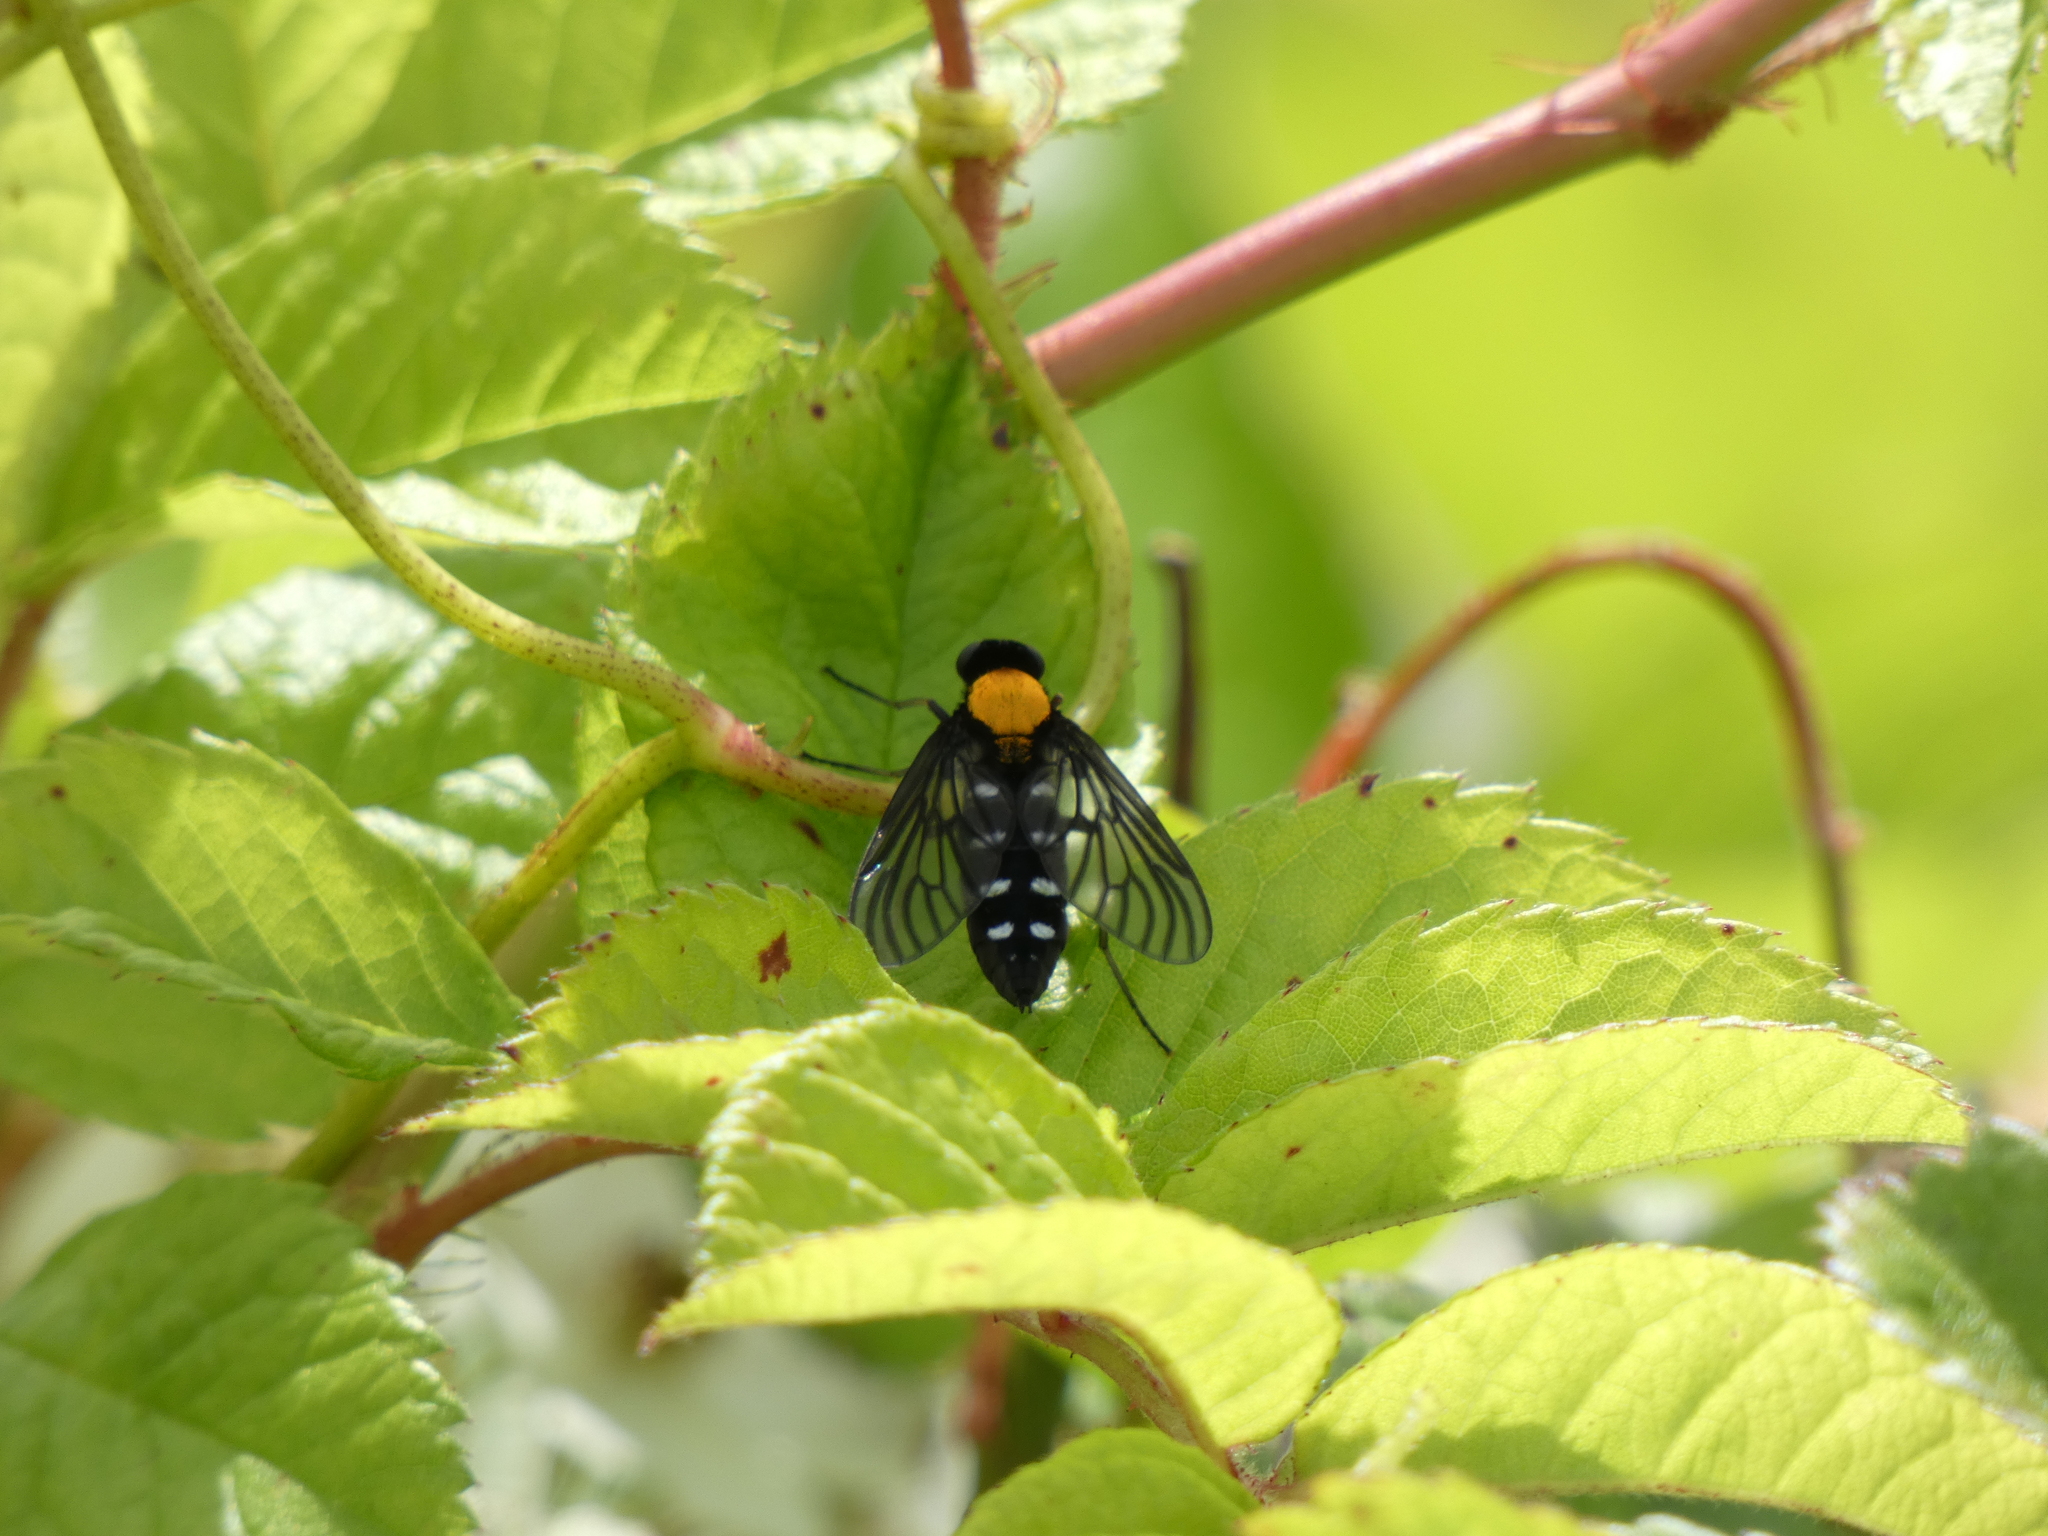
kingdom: Animalia
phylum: Arthropoda
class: Insecta
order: Diptera
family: Rhagionidae
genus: Chrysopilus
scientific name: Chrysopilus thoracicus
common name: Golden-backed snipe fly
